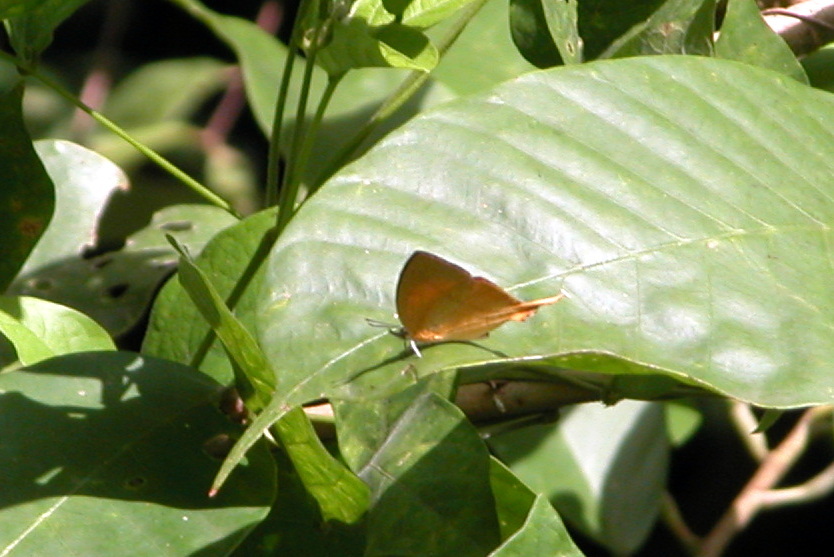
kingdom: Animalia
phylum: Arthropoda
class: Insecta
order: Lepidoptera
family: Lycaenidae
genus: Loxura
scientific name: Loxura atymnus
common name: Common yamfly
